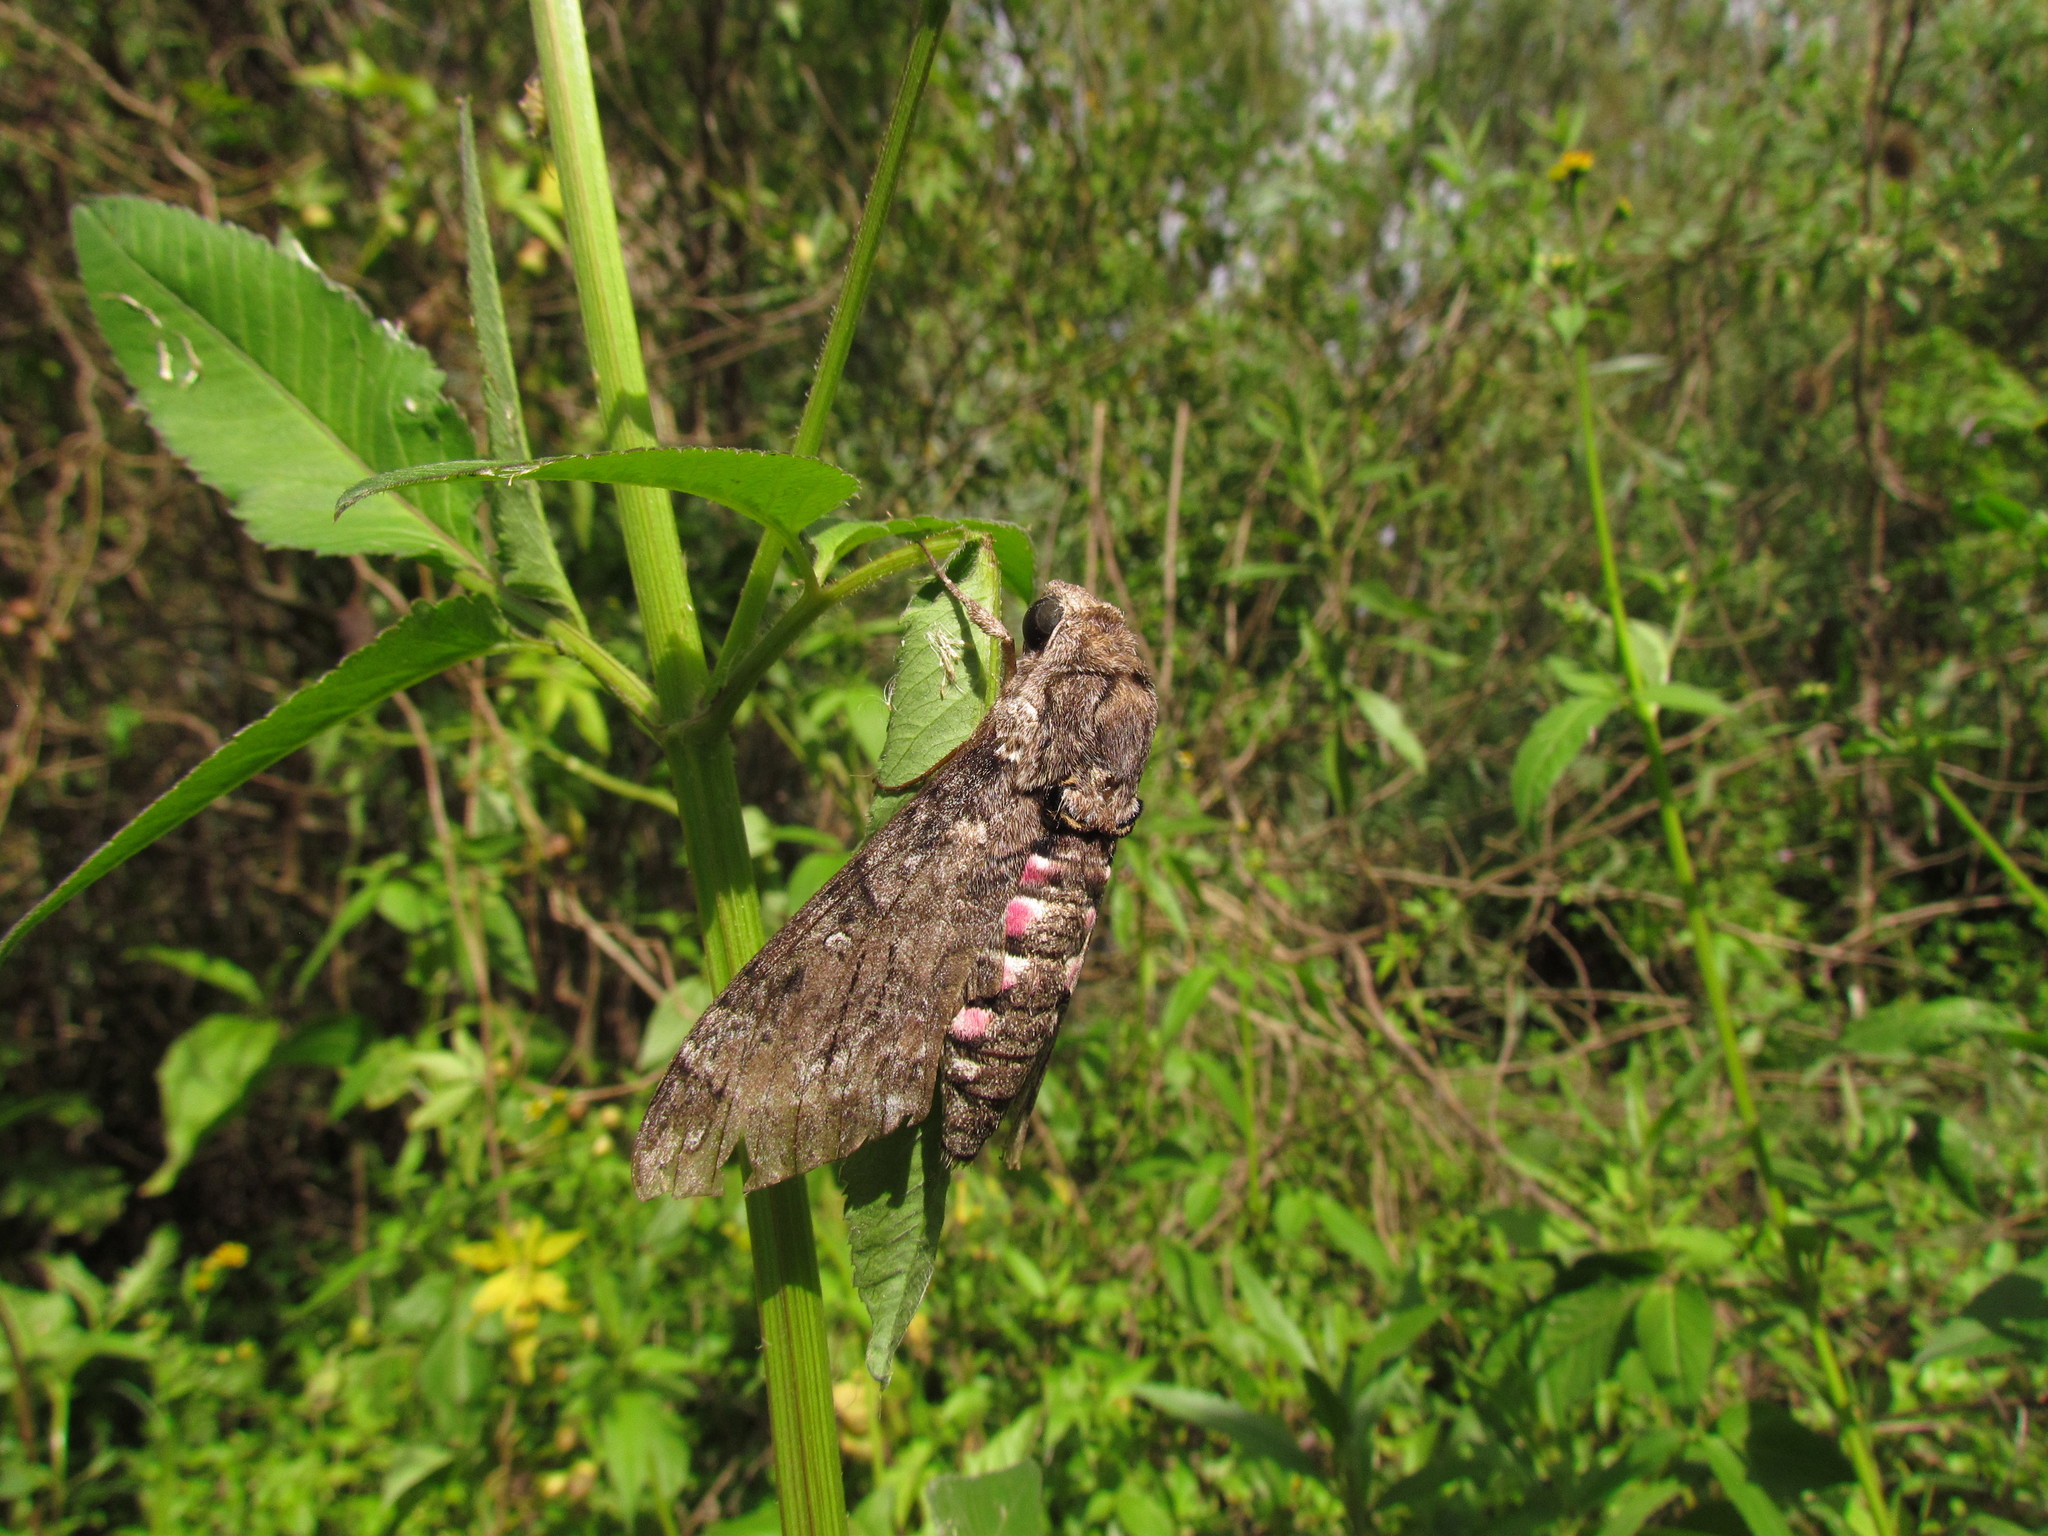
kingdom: Animalia
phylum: Arthropoda
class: Insecta
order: Lepidoptera
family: Sphingidae
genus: Agrius
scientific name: Agrius cingulata
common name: Pink-spotted hawkmoth
